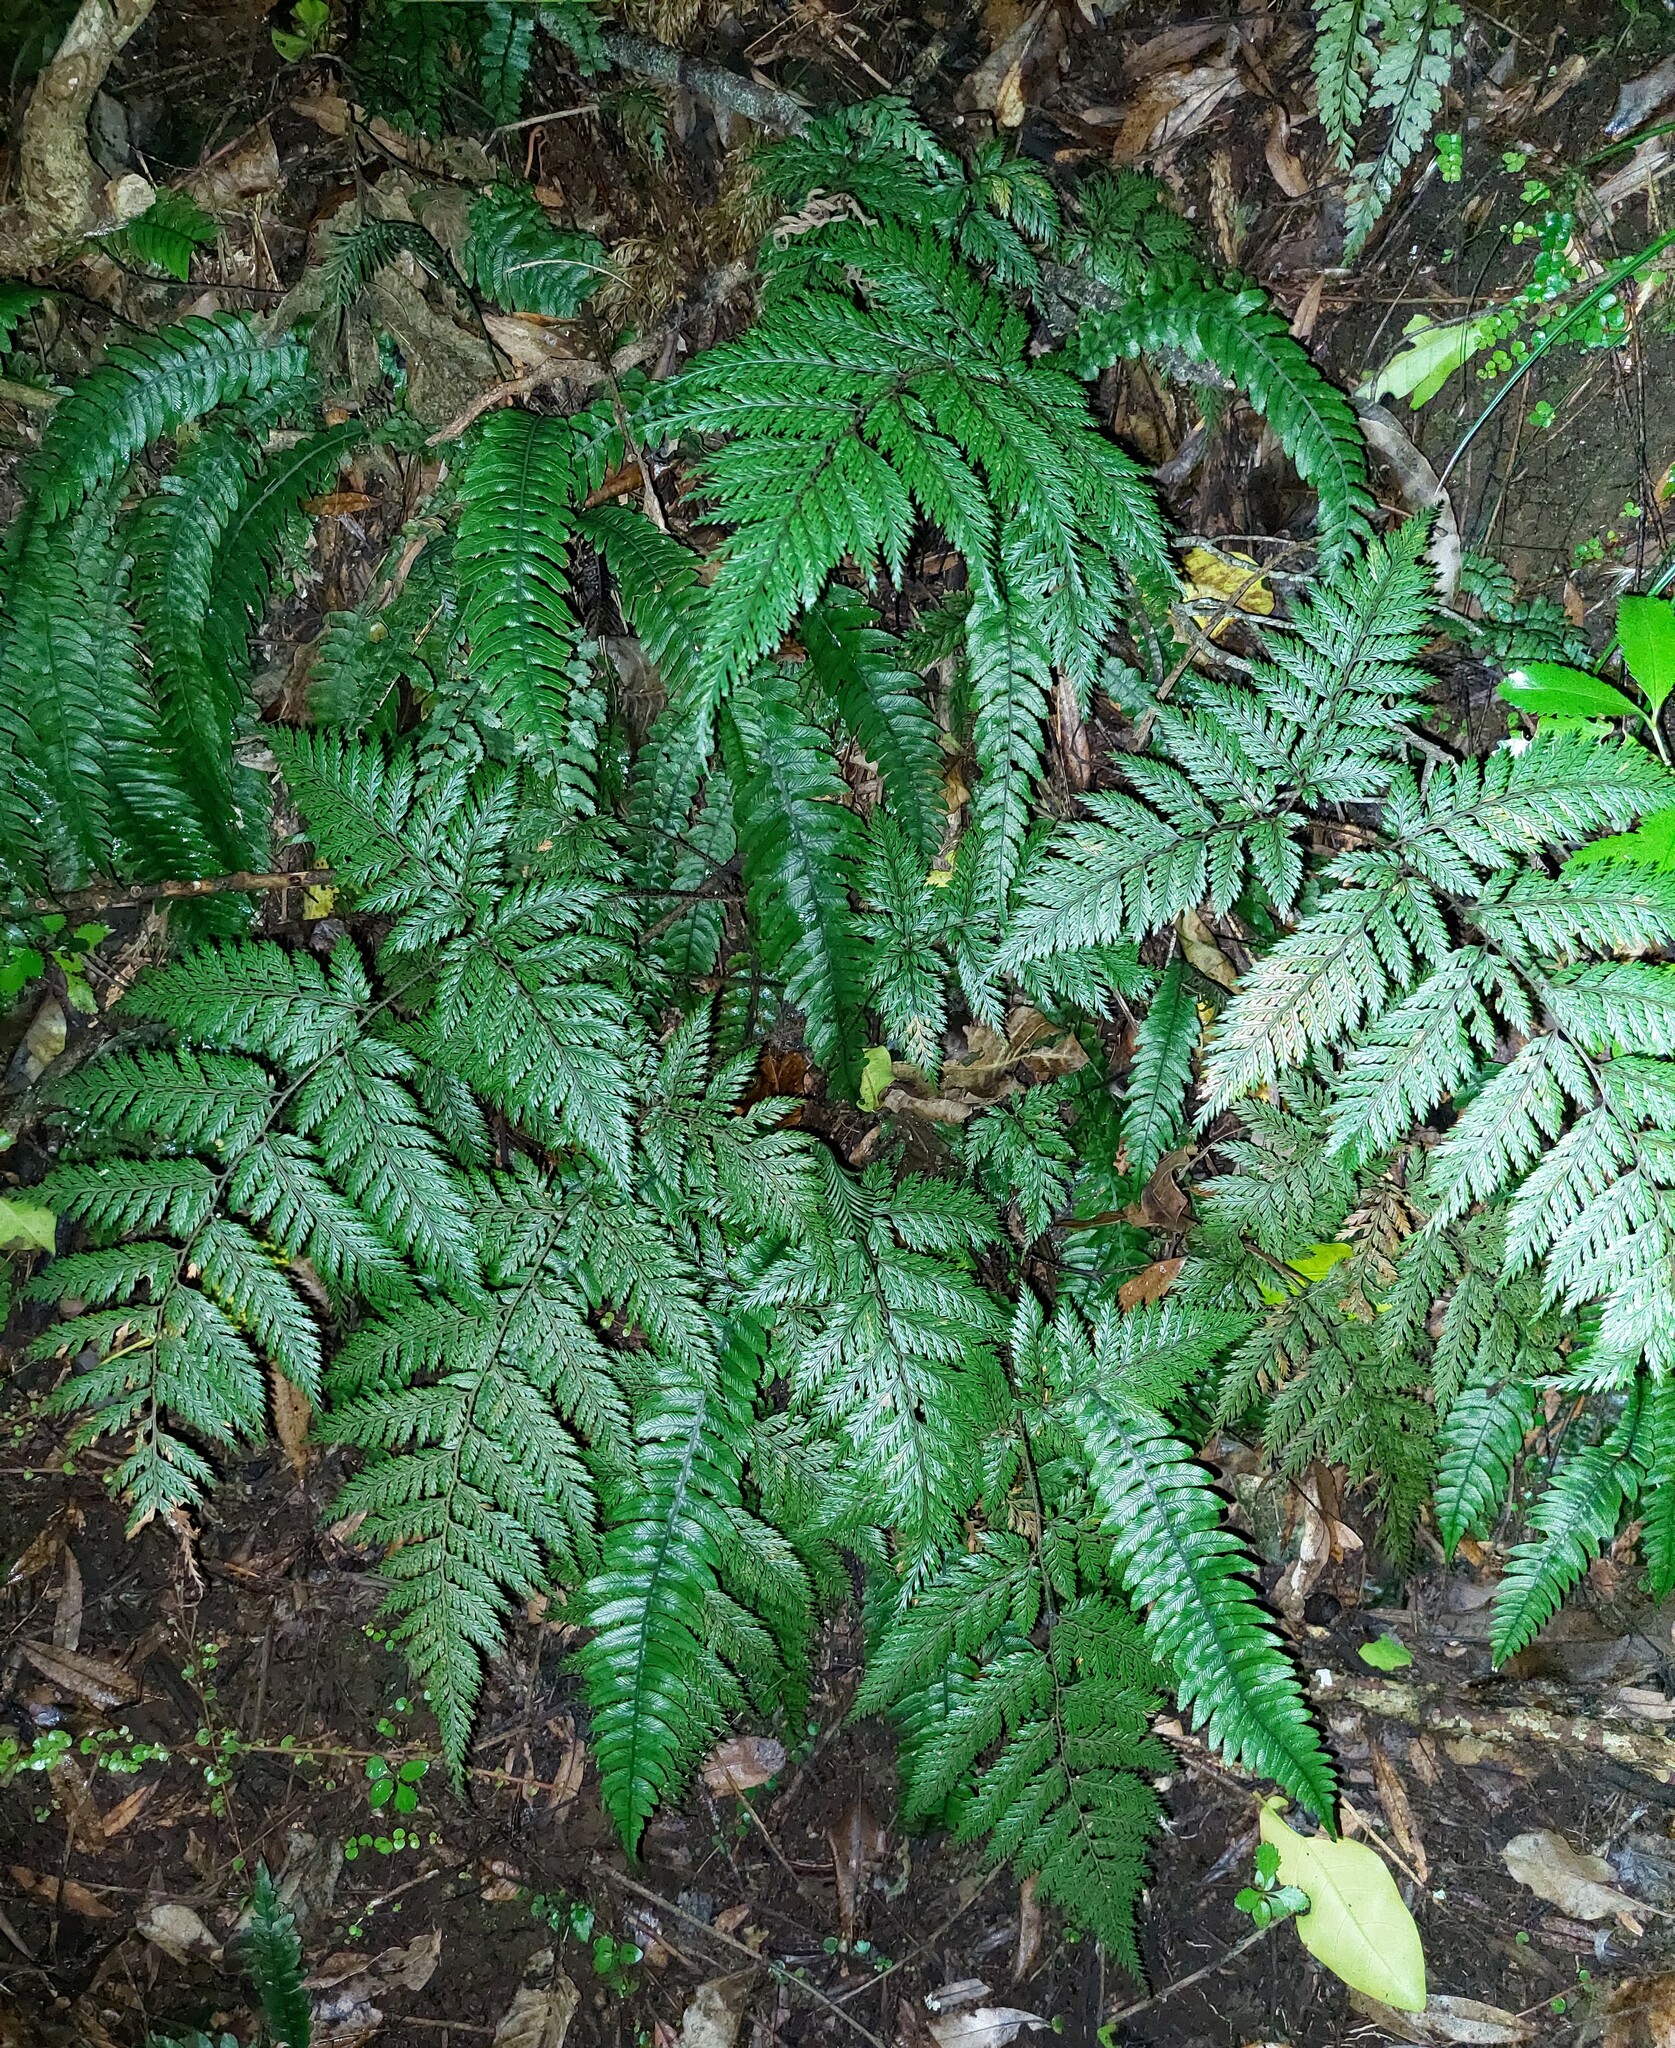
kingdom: Plantae
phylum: Tracheophyta
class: Polypodiopsida
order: Polypodiales
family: Dryopteridaceae
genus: Lastreopsis
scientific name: Lastreopsis hispida
